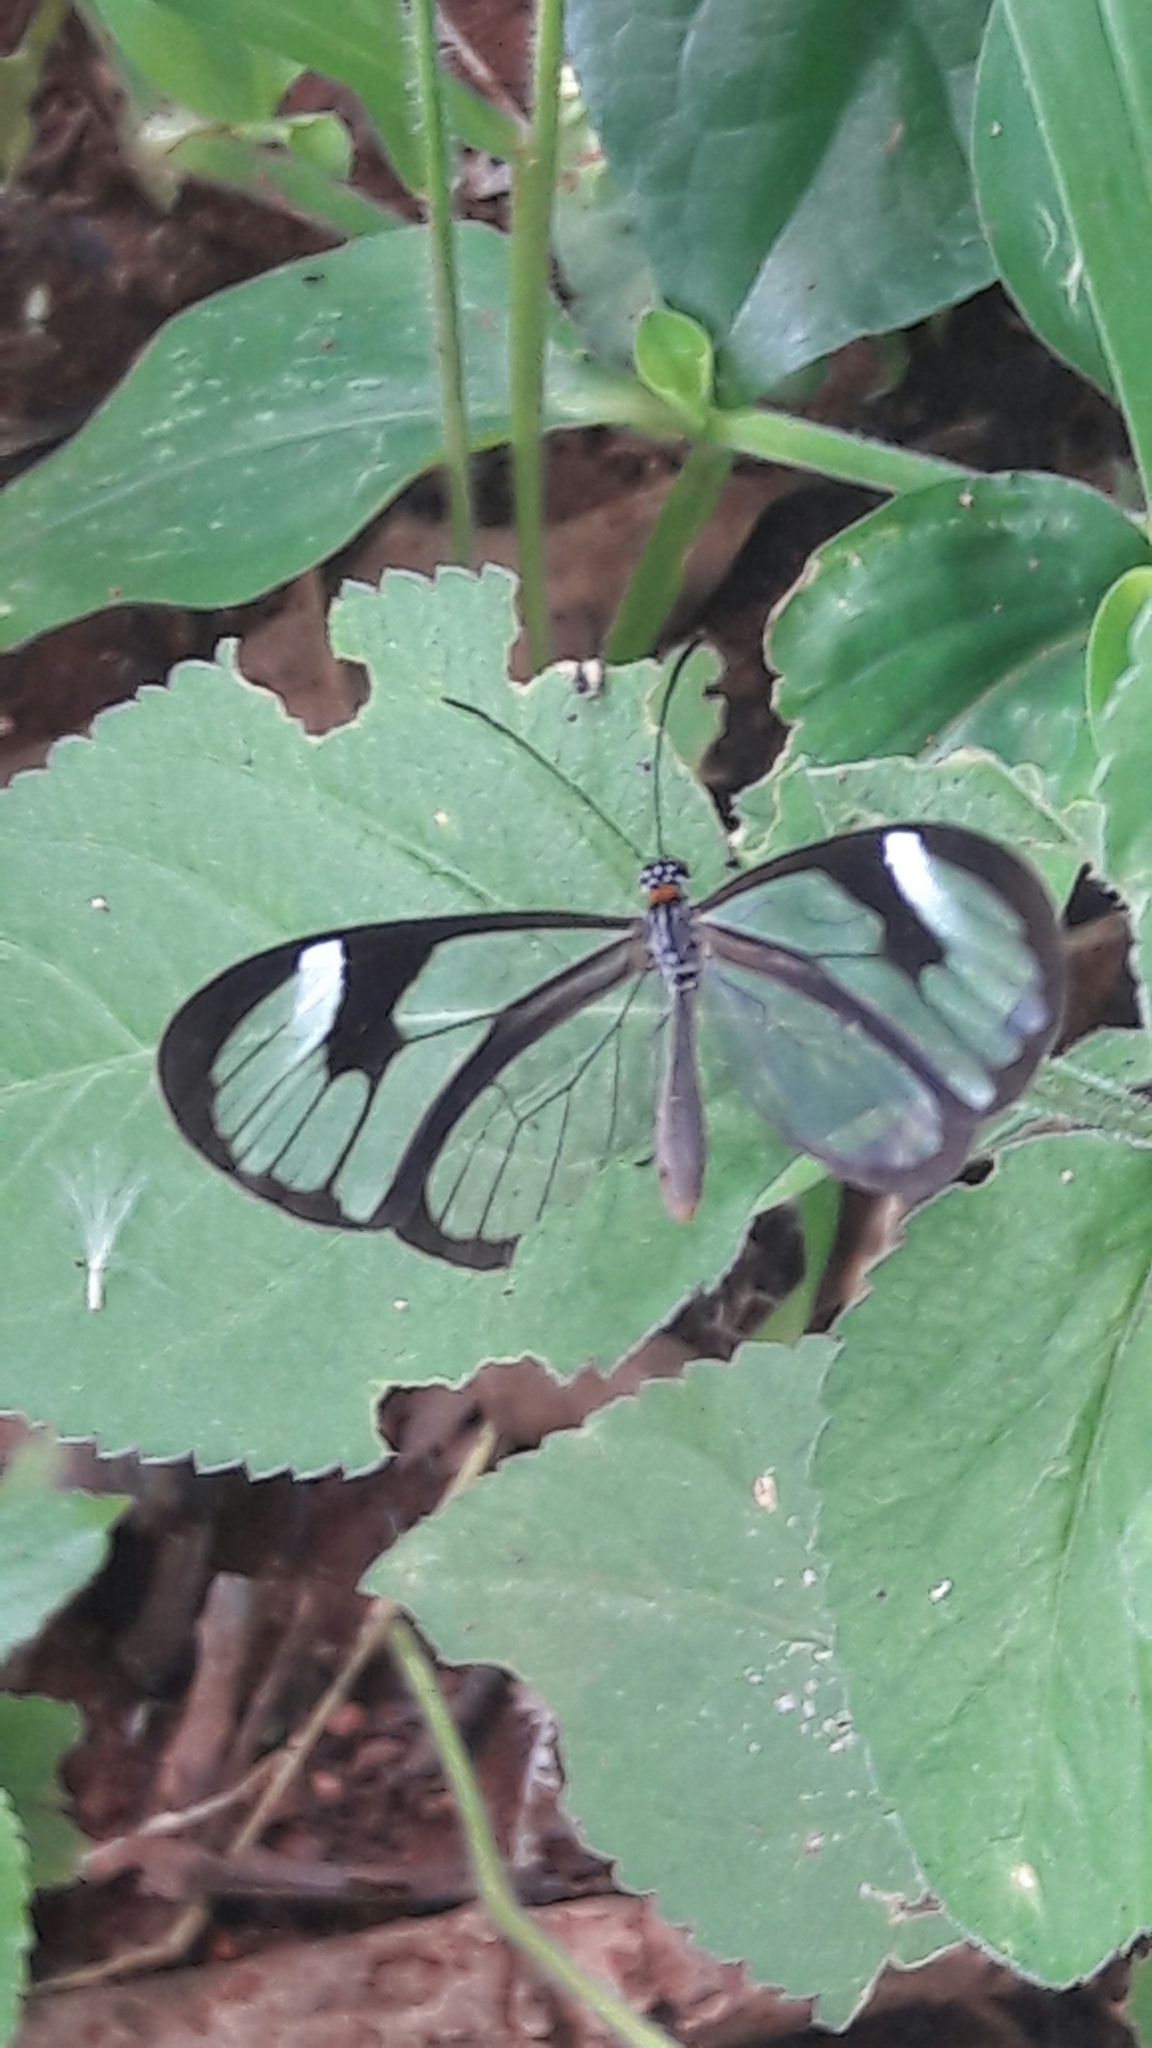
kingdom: Animalia
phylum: Arthropoda
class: Insecta
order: Lepidoptera
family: Nymphalidae
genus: Ithomia
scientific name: Ithomia agnosia
